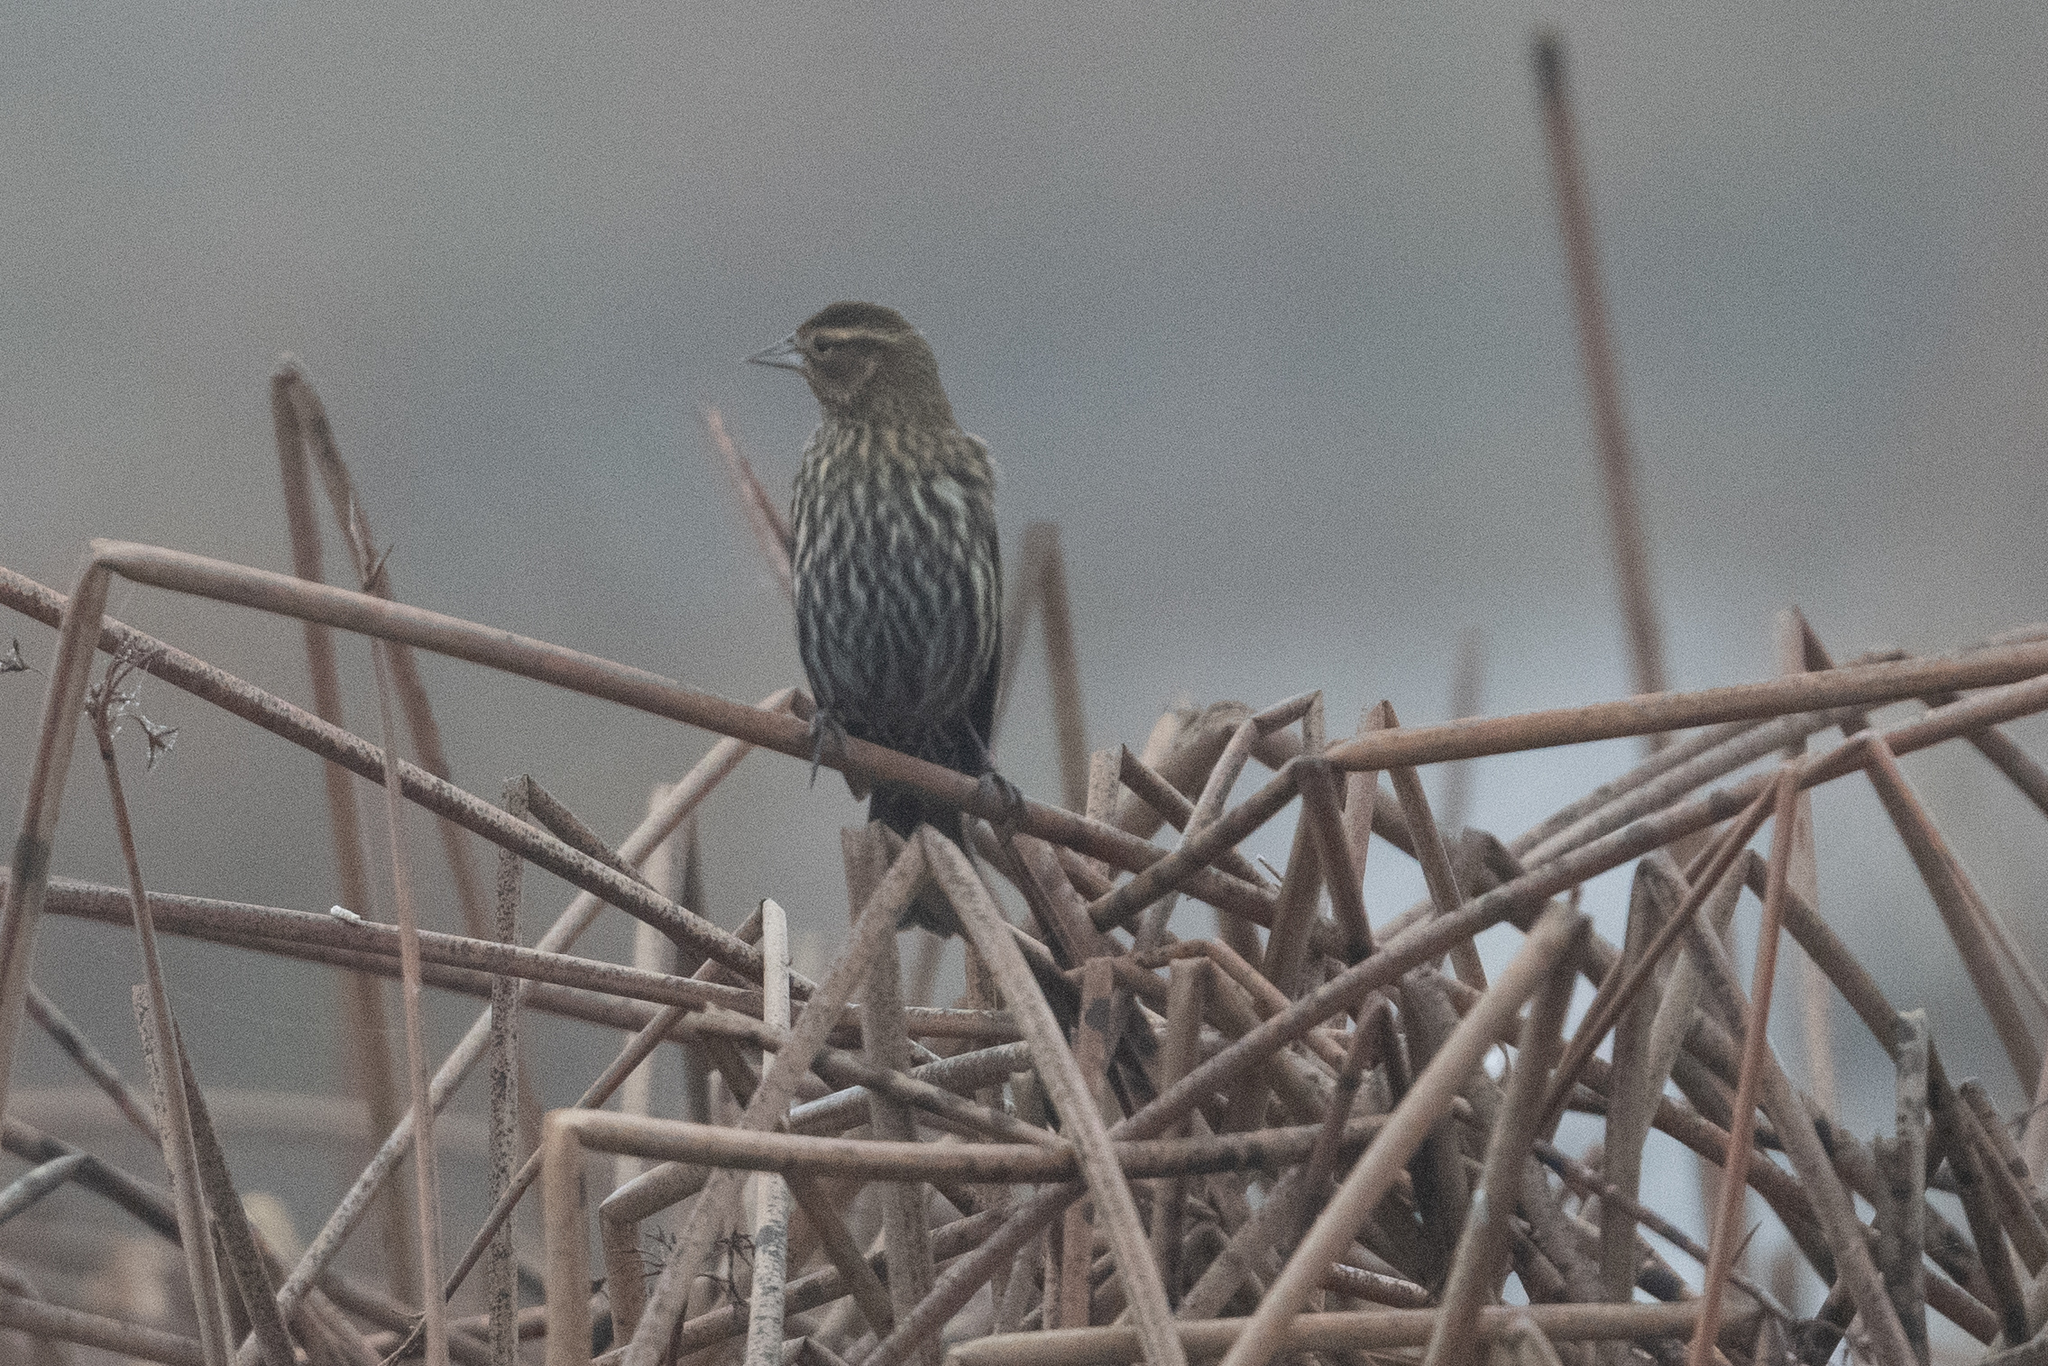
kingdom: Animalia
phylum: Chordata
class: Aves
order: Passeriformes
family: Icteridae
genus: Agelaius
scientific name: Agelaius phoeniceus
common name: Red-winged blackbird
